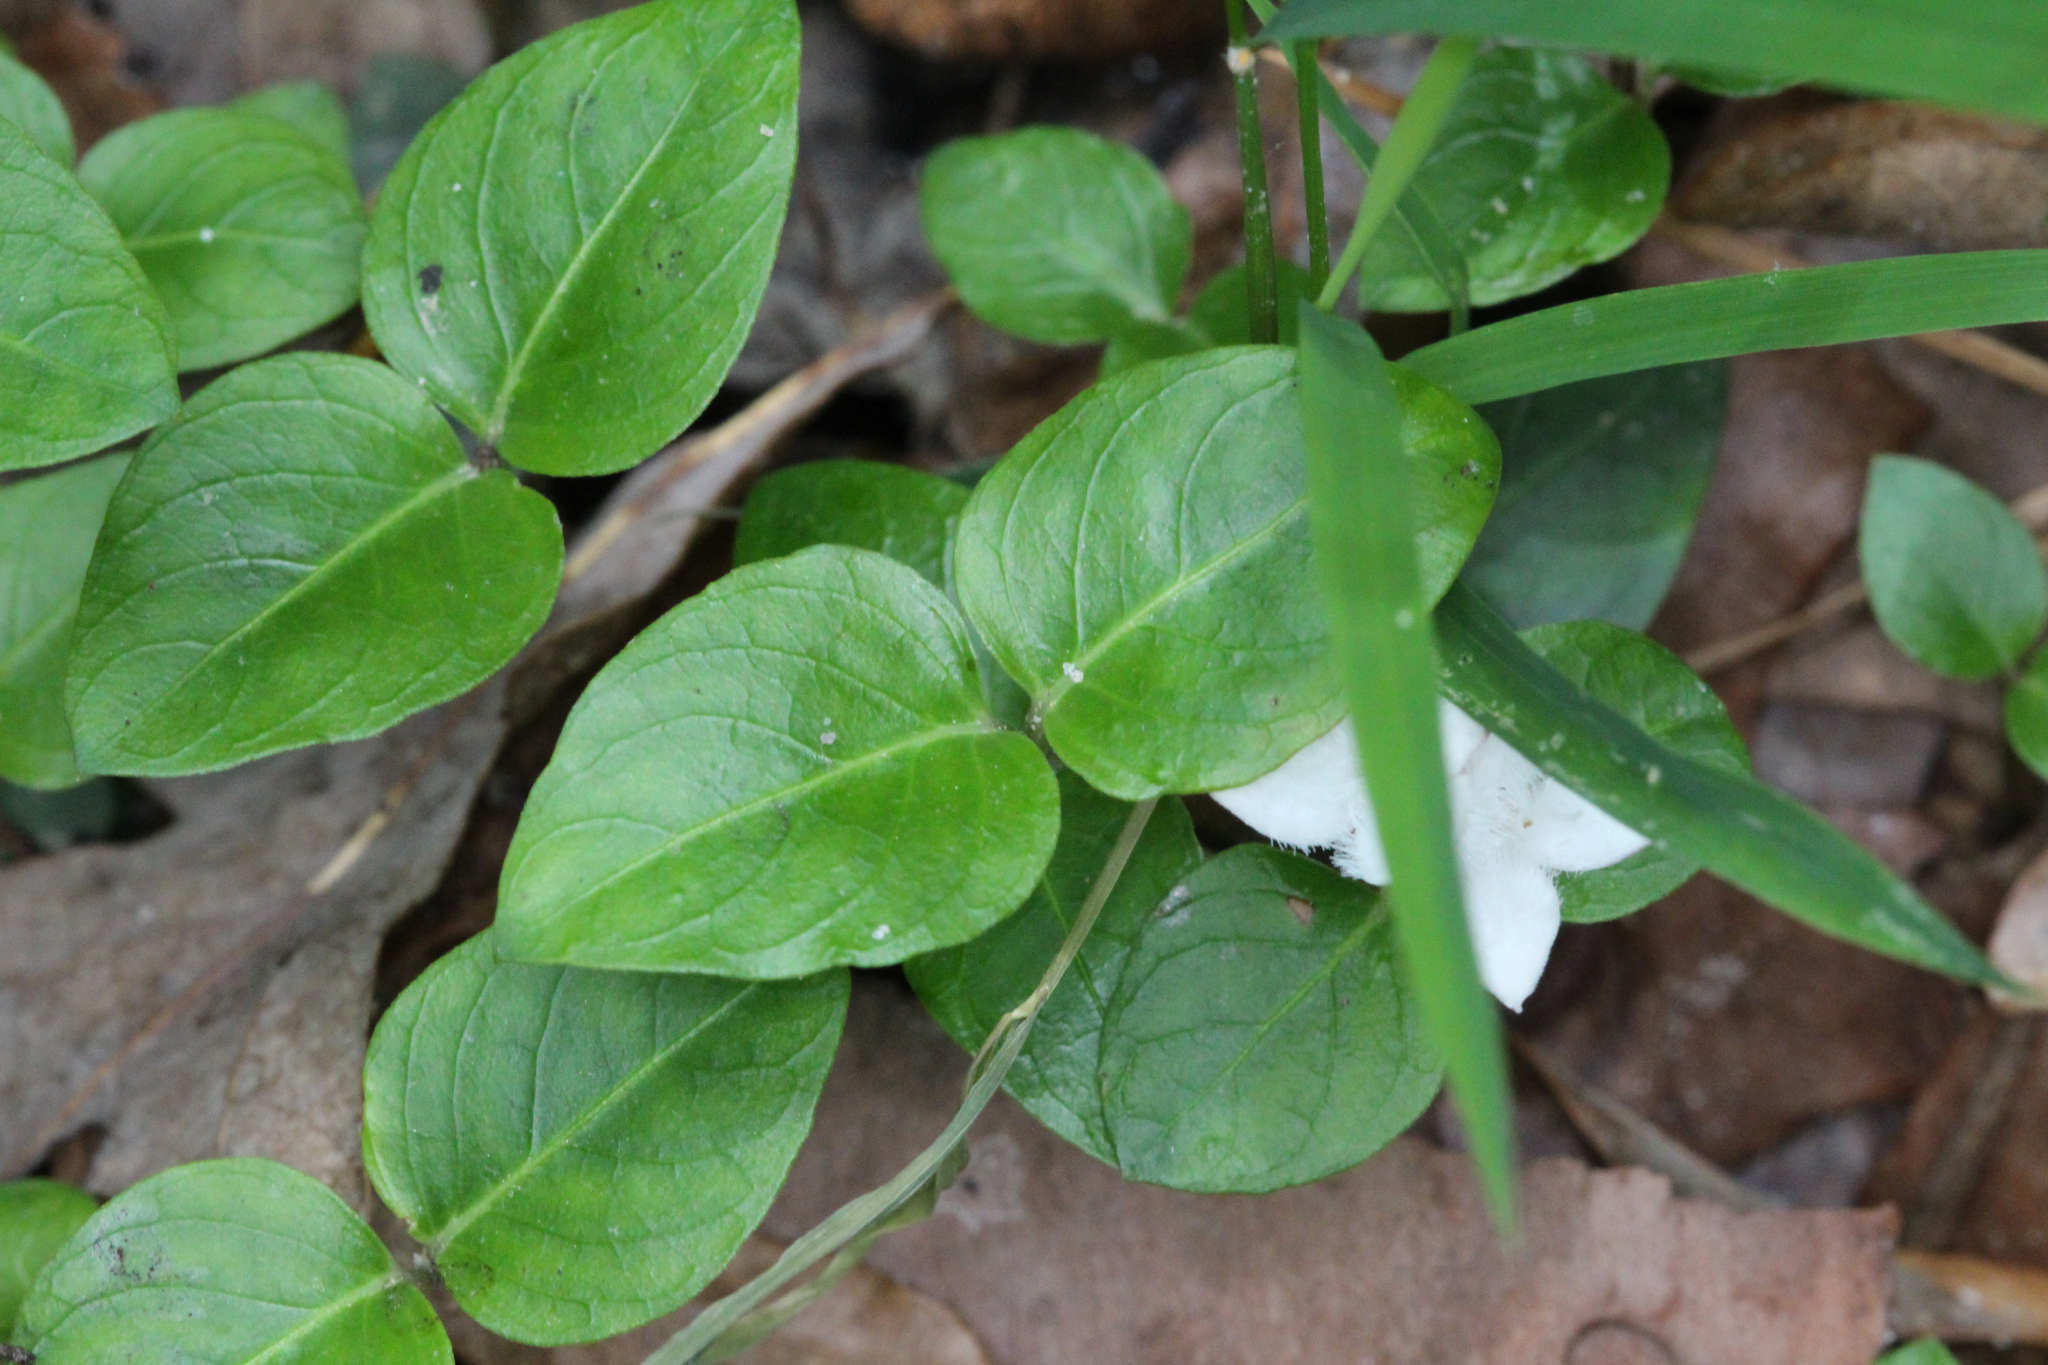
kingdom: Plantae
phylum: Tracheophyta
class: Magnoliopsida
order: Gentianales
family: Rubiaceae
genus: Mitchella
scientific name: Mitchella repens
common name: Partridge-berry
